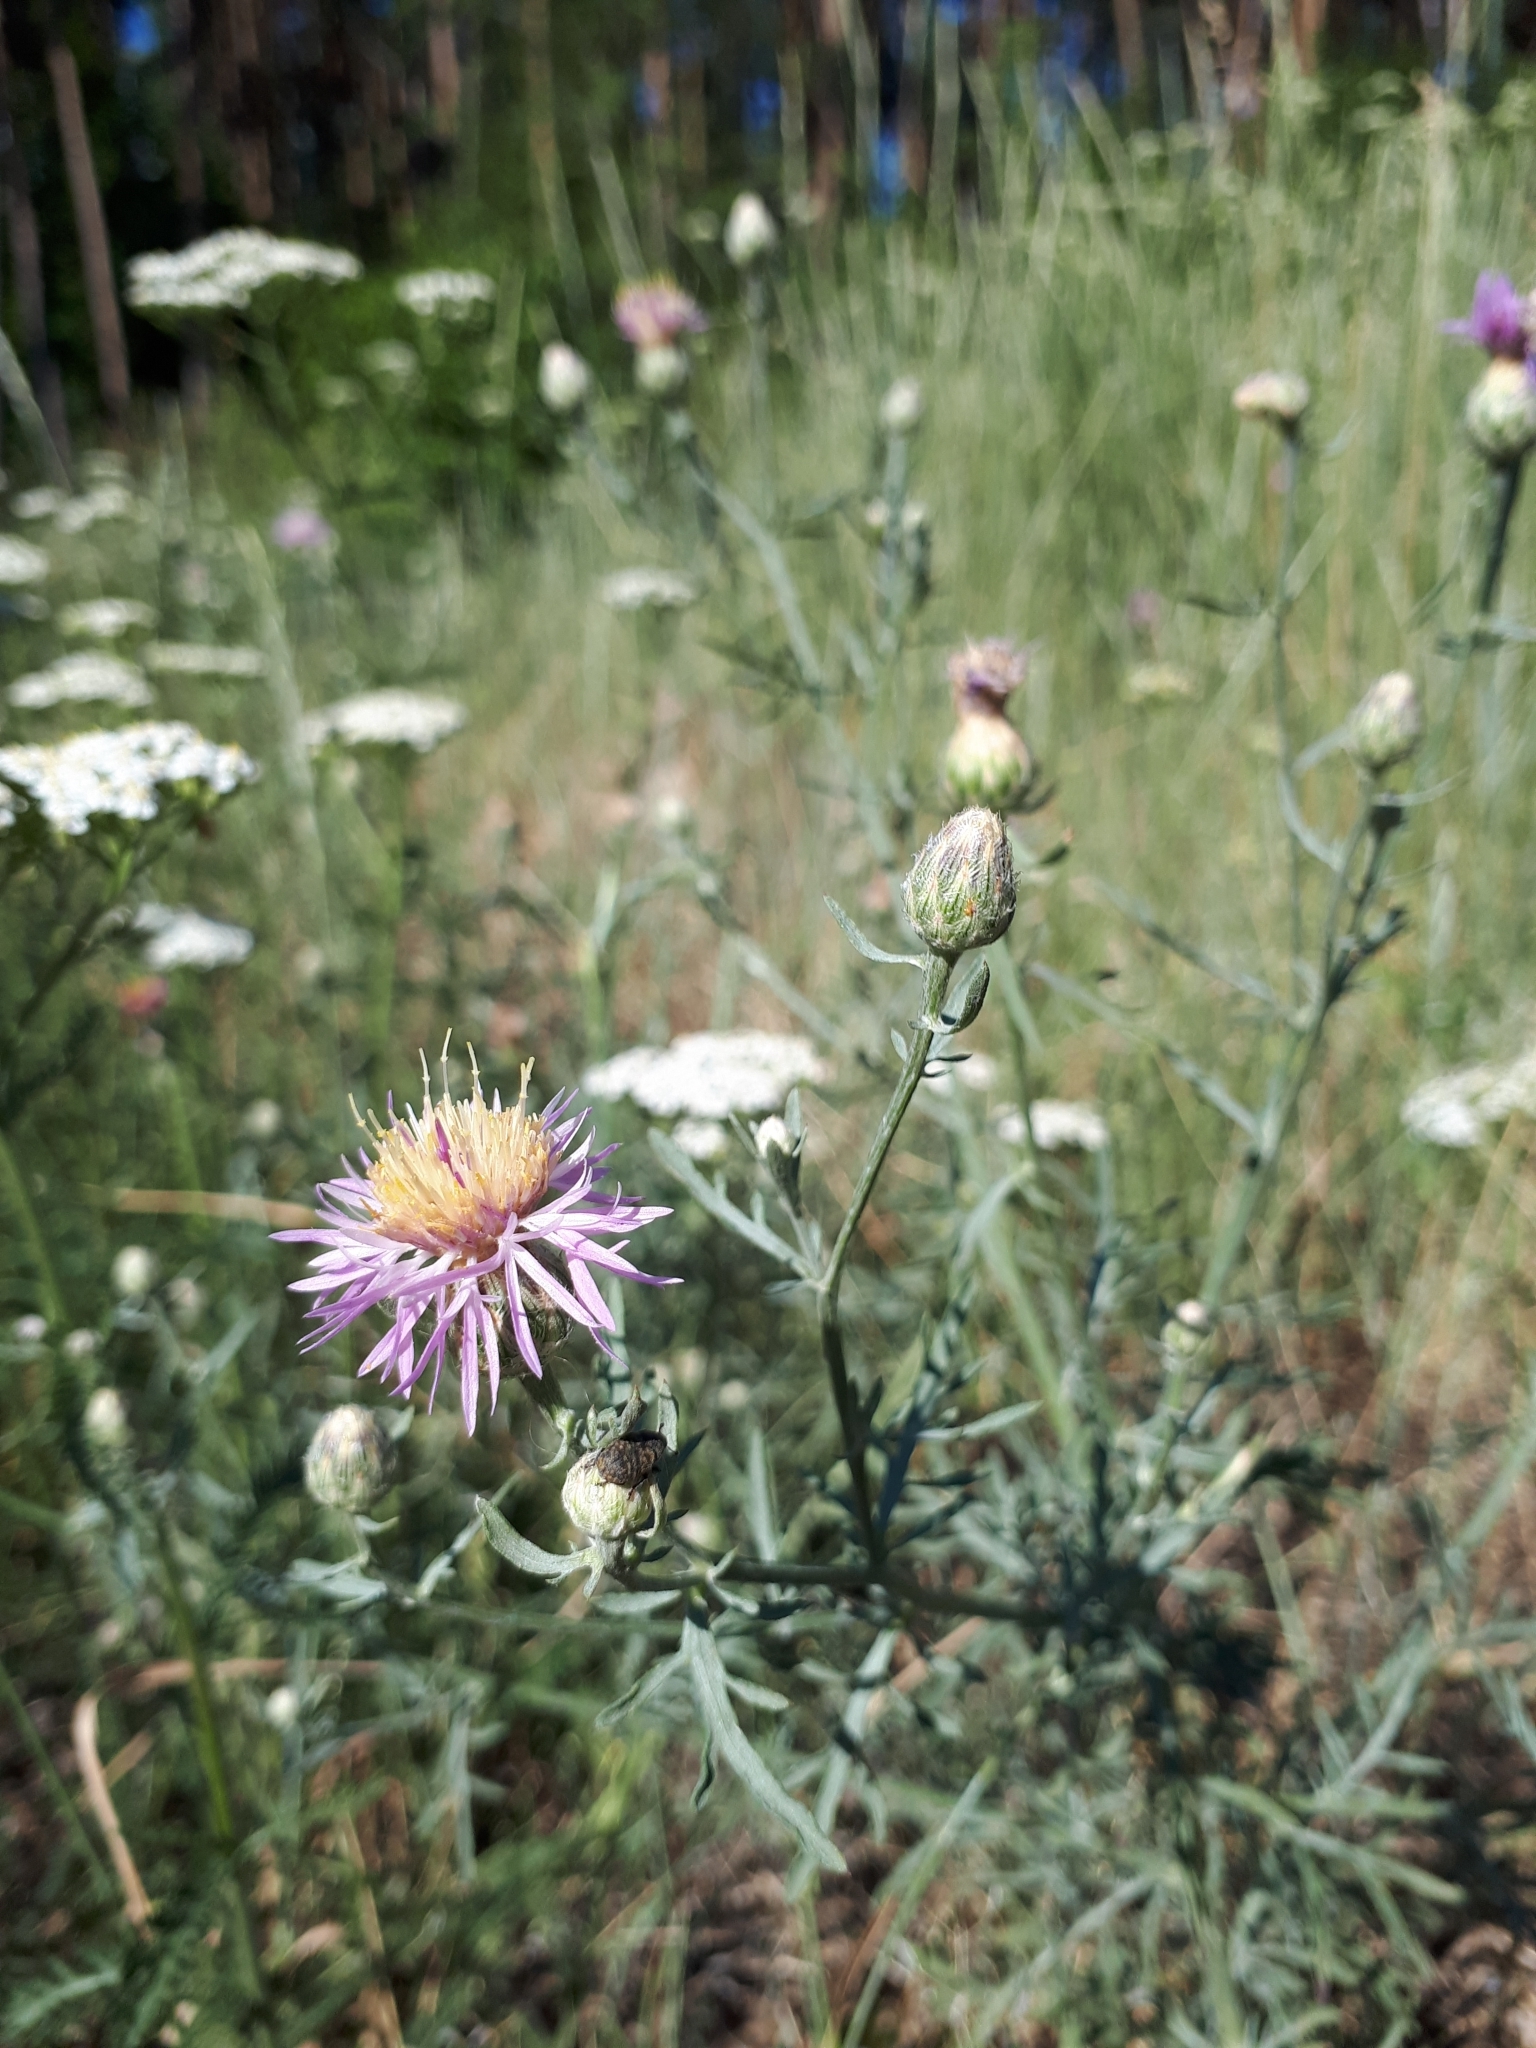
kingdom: Plantae
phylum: Tracheophyta
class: Magnoliopsida
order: Asterales
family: Asteraceae
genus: Centaurea
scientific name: Centaurea arenaria
